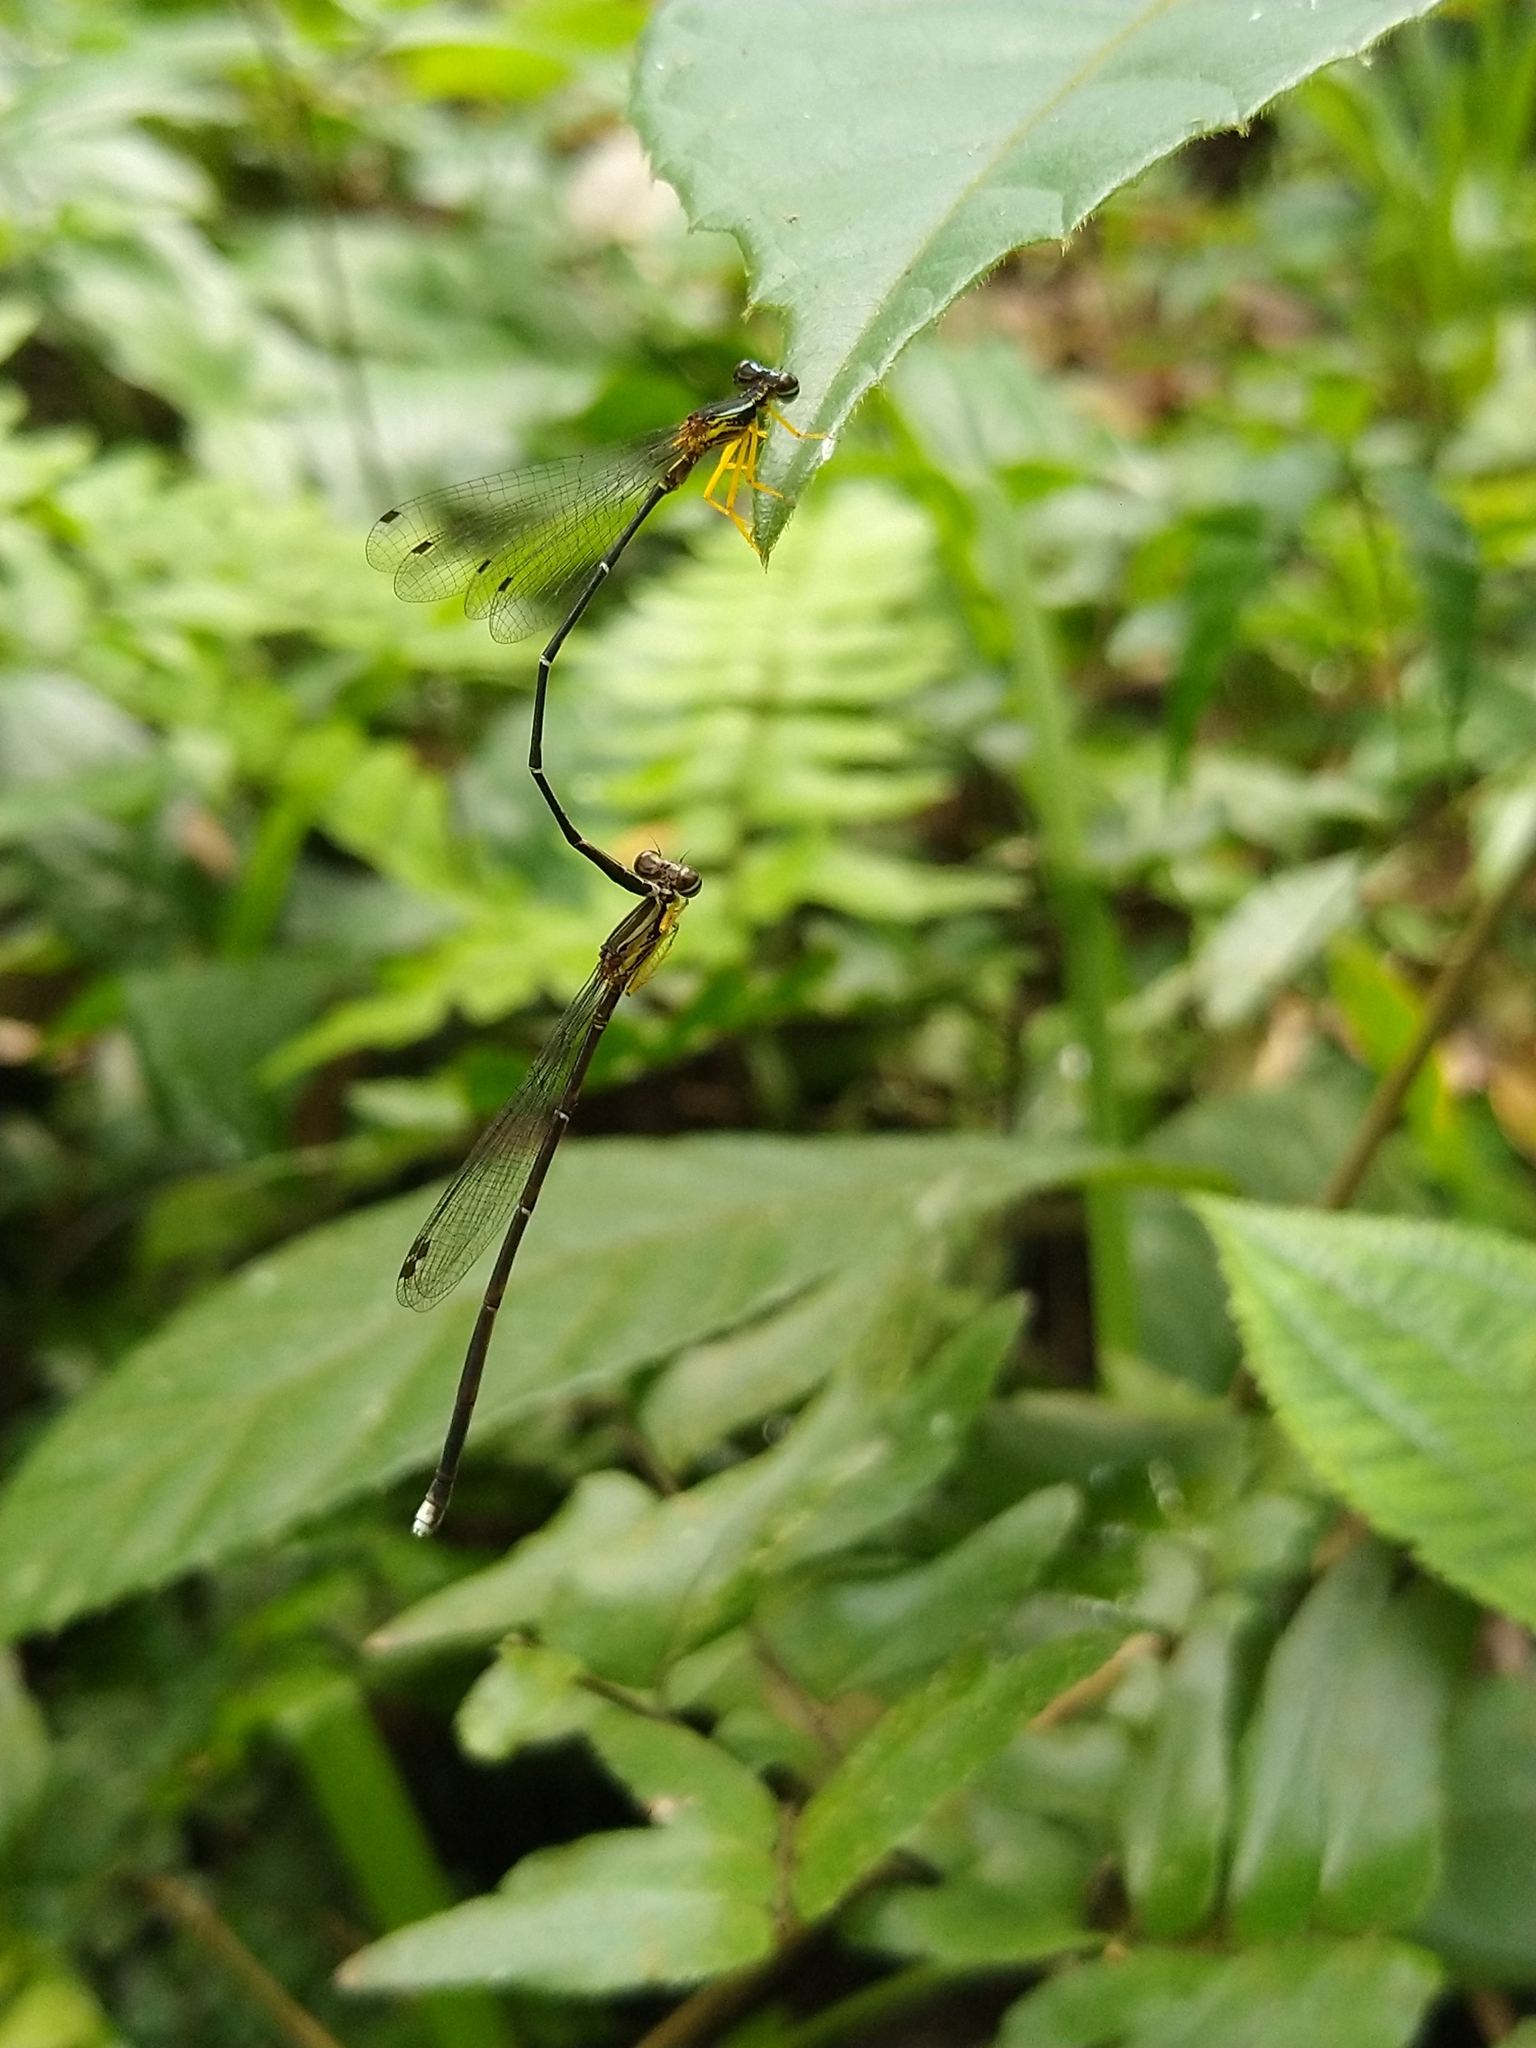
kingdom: Animalia
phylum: Arthropoda
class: Insecta
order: Odonata
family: Platycnemididae
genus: Copera
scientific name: Copera vittata
